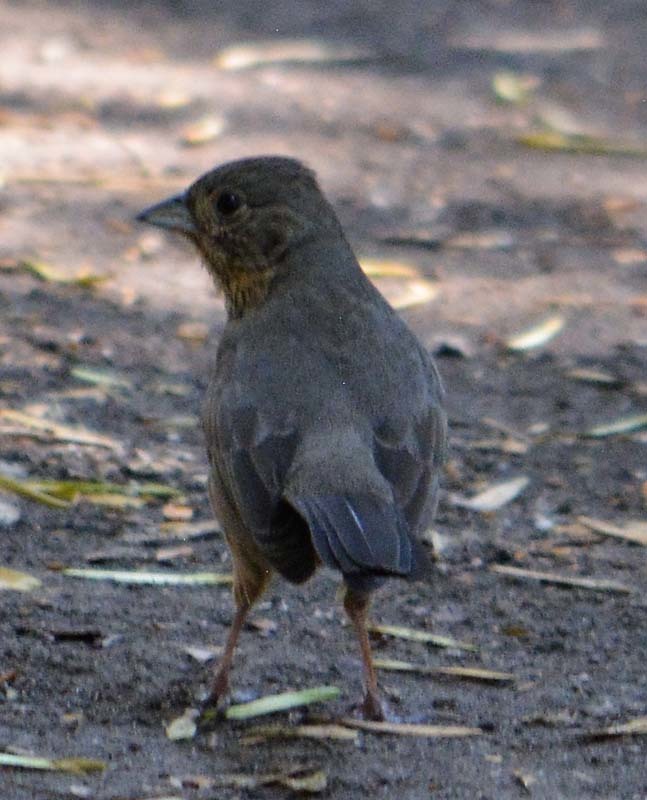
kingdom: Animalia
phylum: Chordata
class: Aves
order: Passeriformes
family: Passerellidae
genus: Melozone
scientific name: Melozone fusca
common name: Canyon towhee
